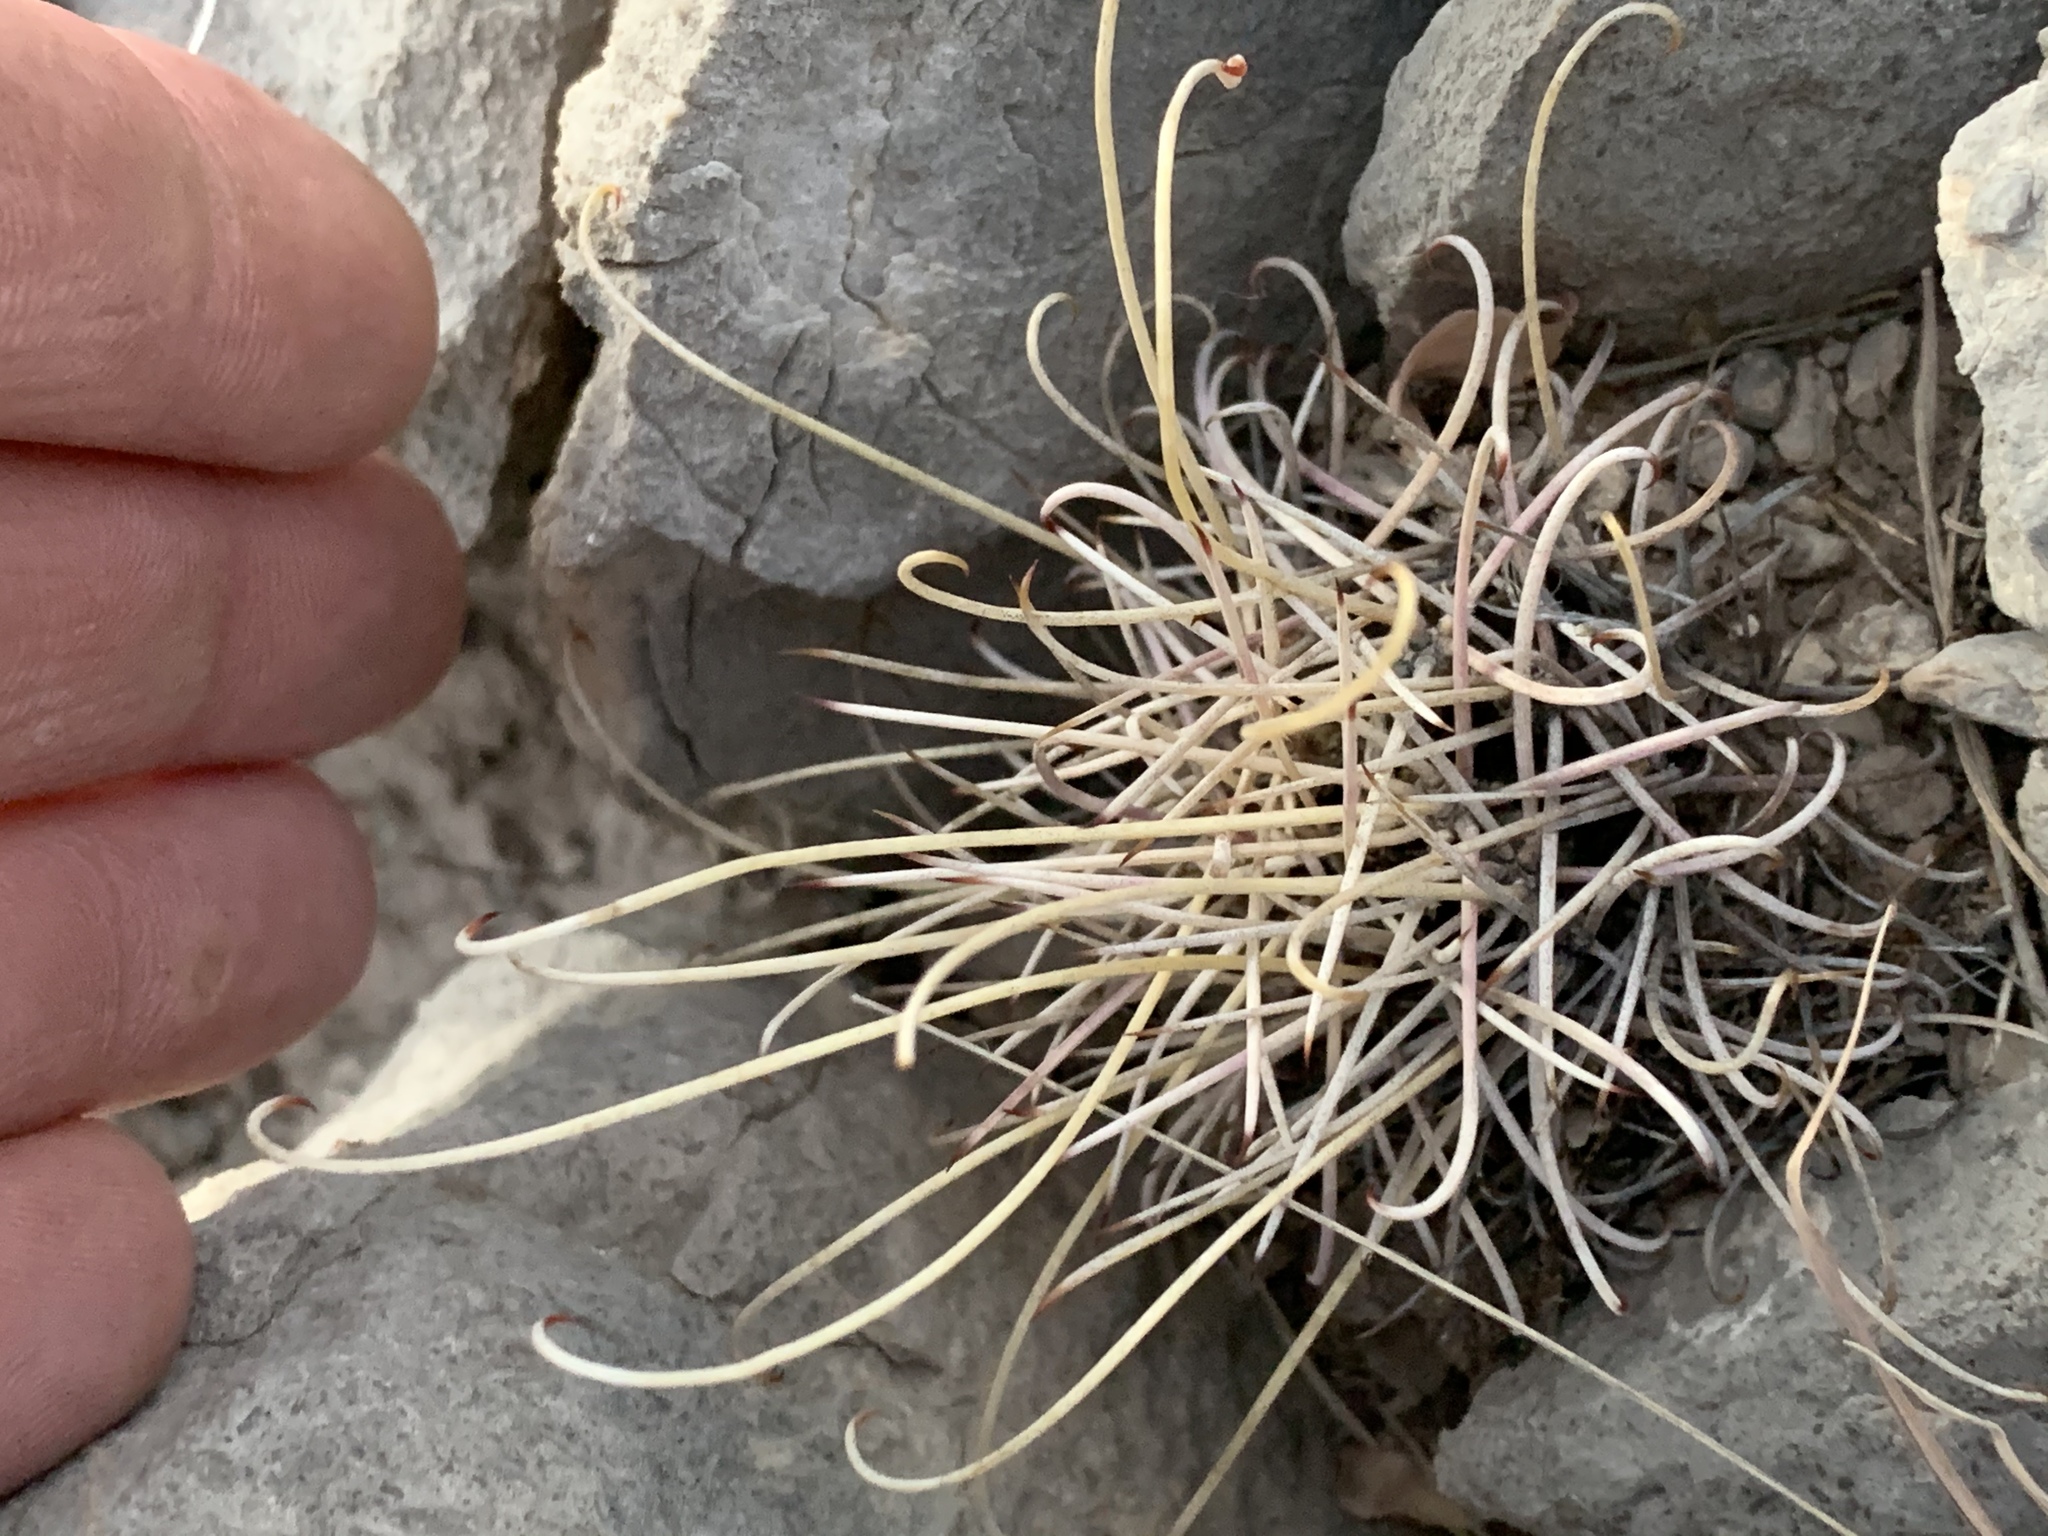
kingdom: Plantae
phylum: Tracheophyta
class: Magnoliopsida
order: Caryophyllales
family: Cactaceae
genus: Ferocactus
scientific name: Ferocactus uncinatus
